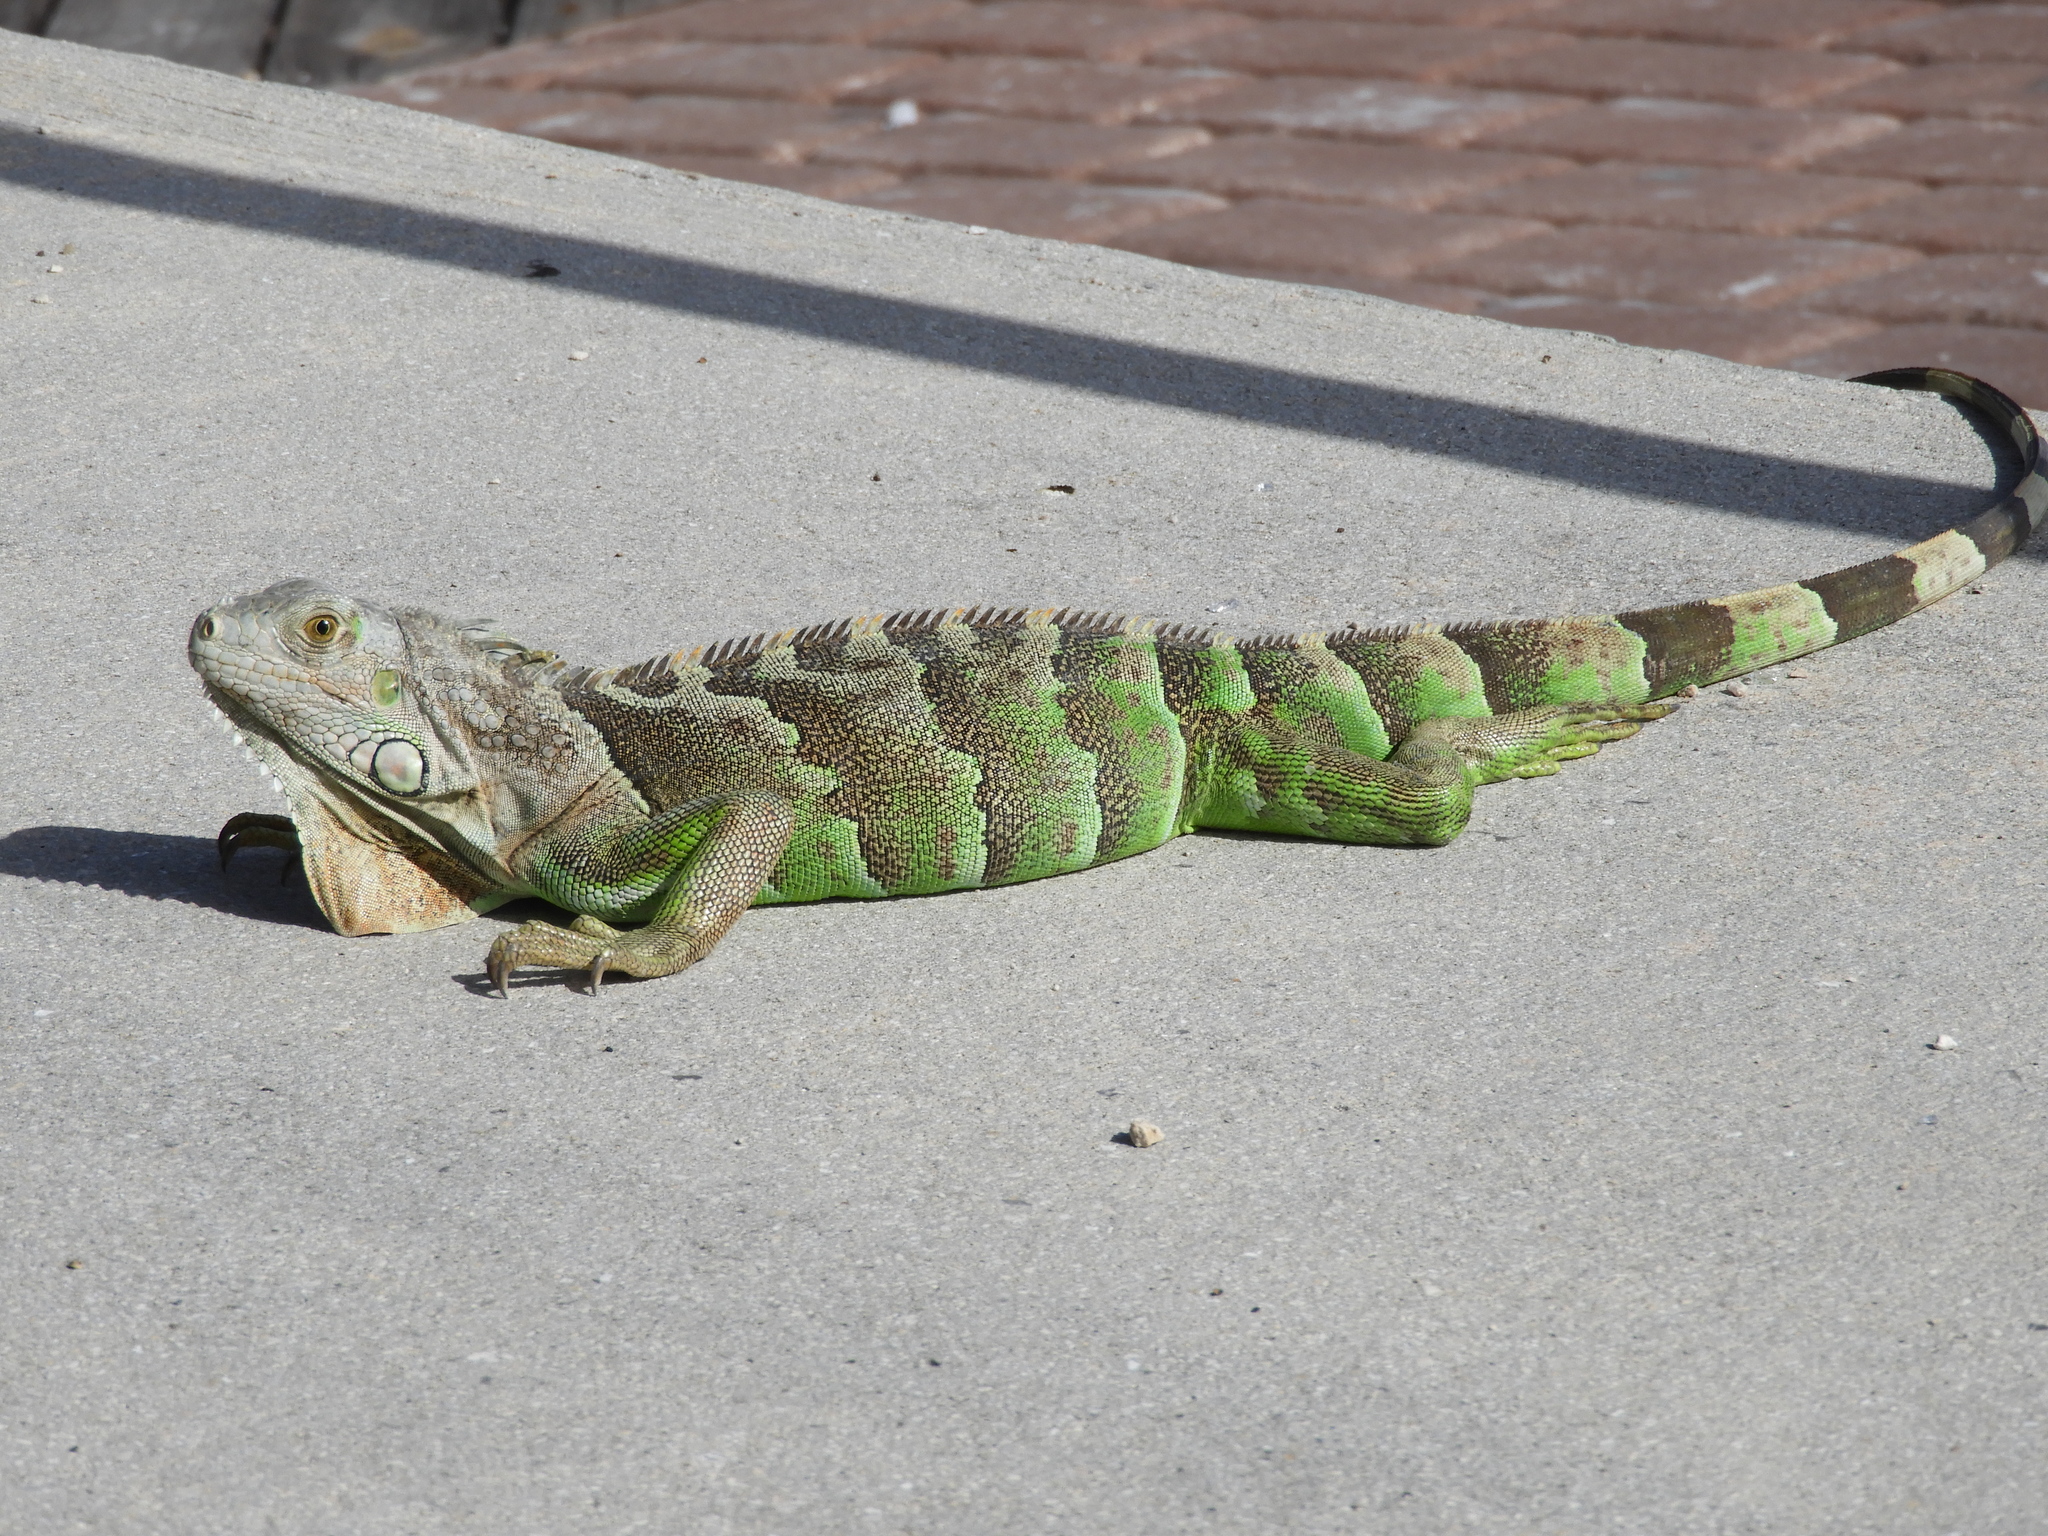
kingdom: Animalia
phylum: Chordata
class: Squamata
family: Iguanidae
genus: Iguana
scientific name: Iguana iguana
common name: Green iguana
